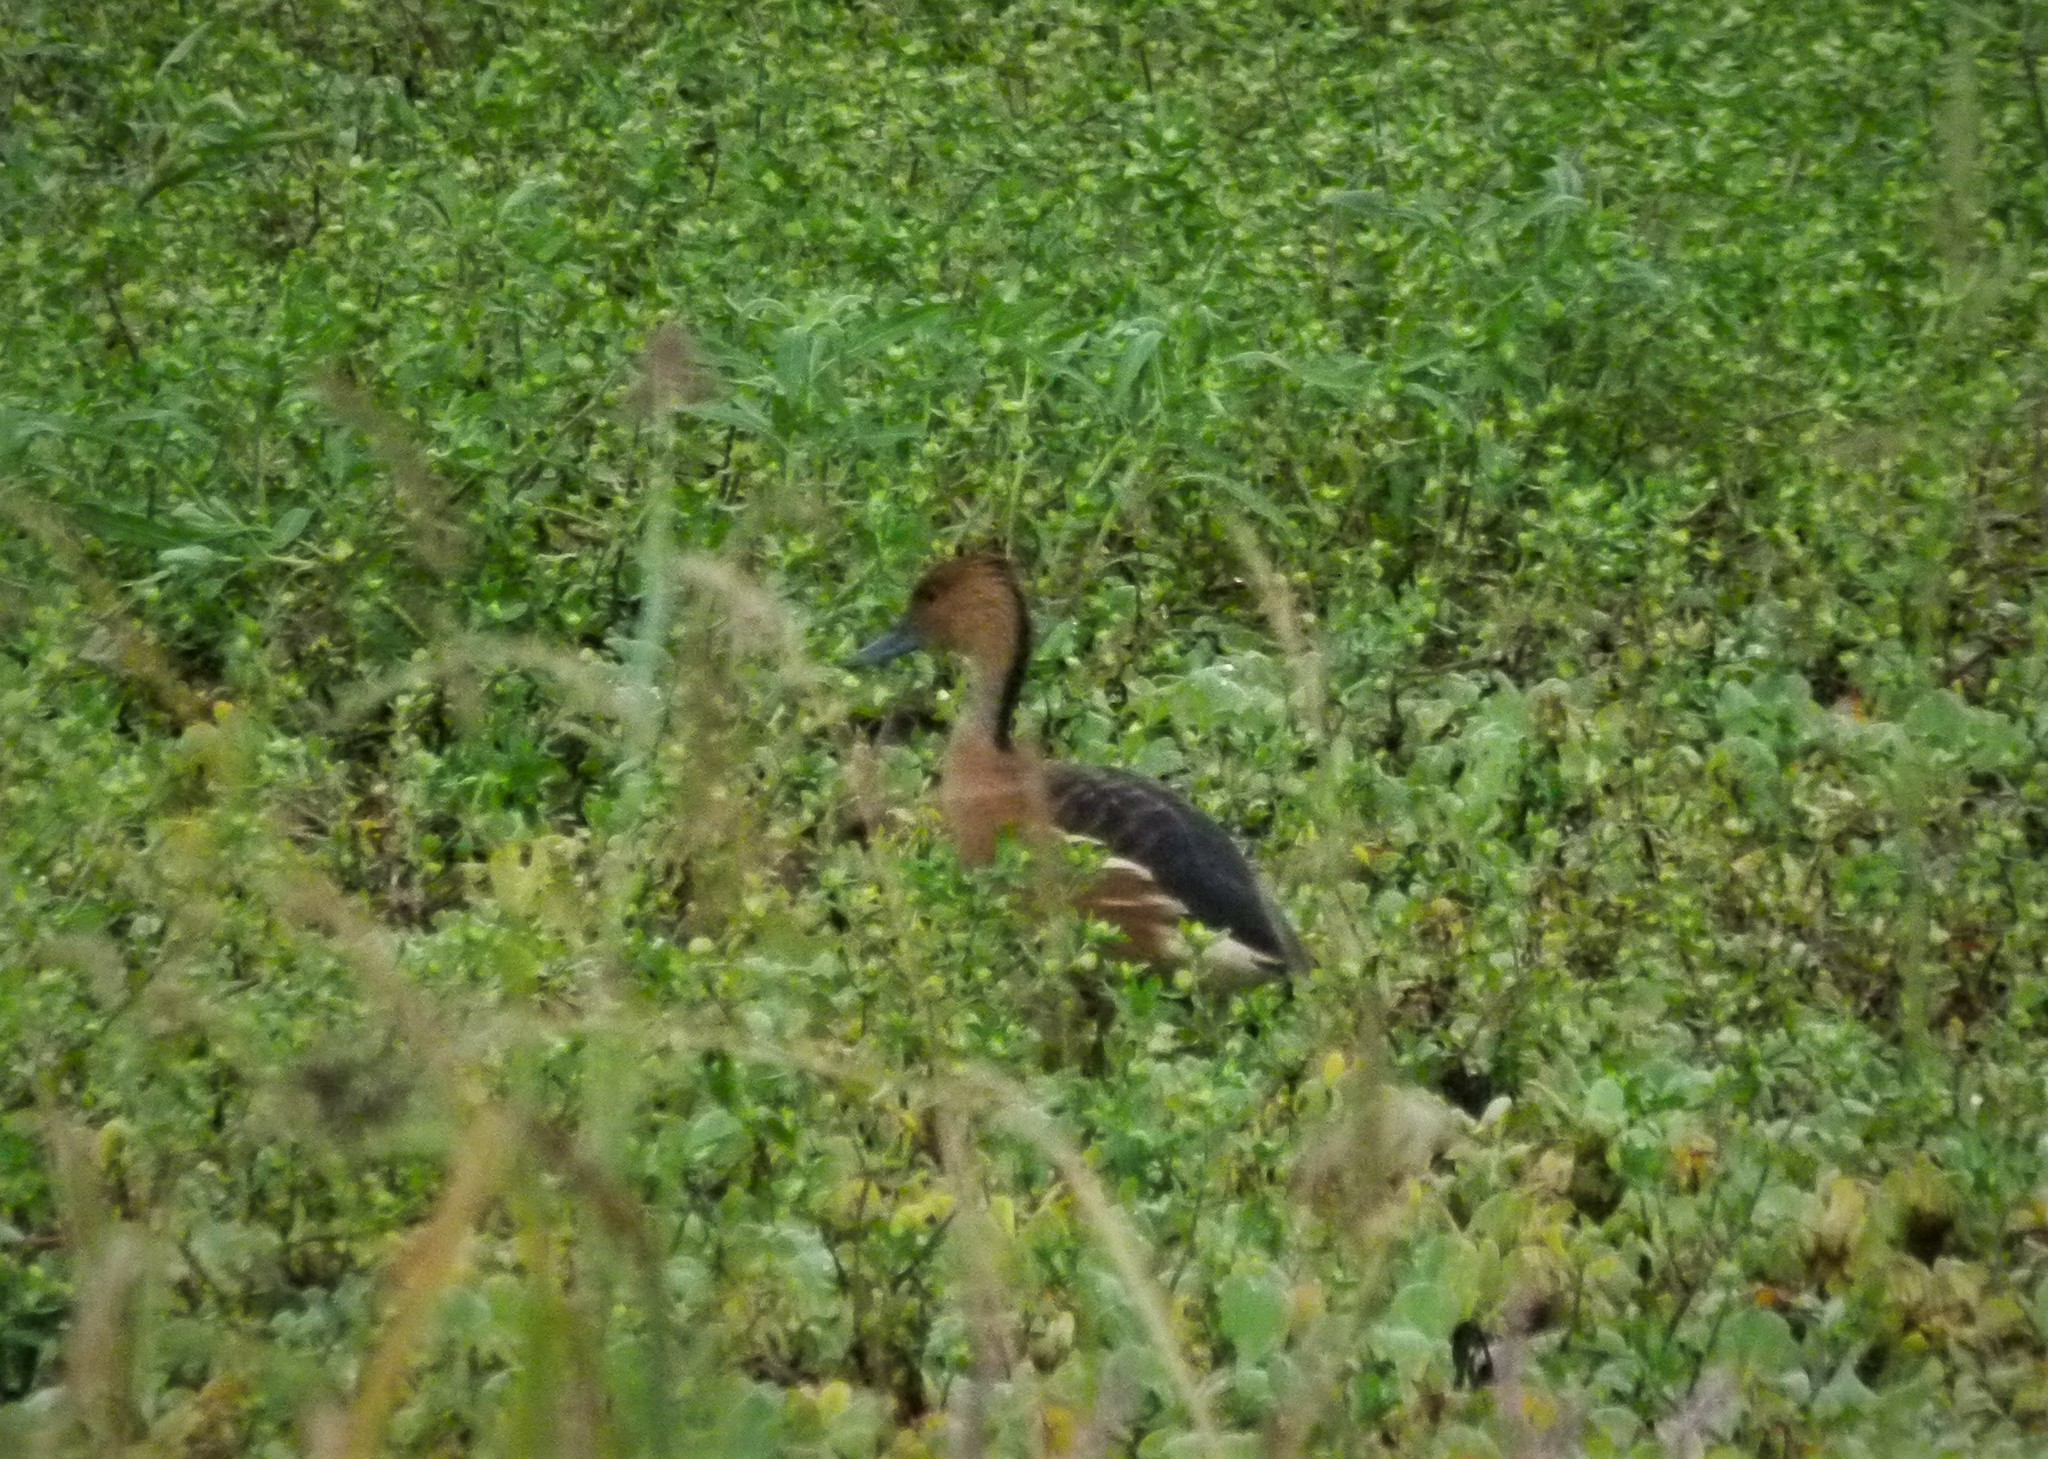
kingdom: Animalia
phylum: Chordata
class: Aves
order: Anseriformes
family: Anatidae
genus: Dendrocygna
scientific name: Dendrocygna bicolor
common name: Fulvous whistling duck
